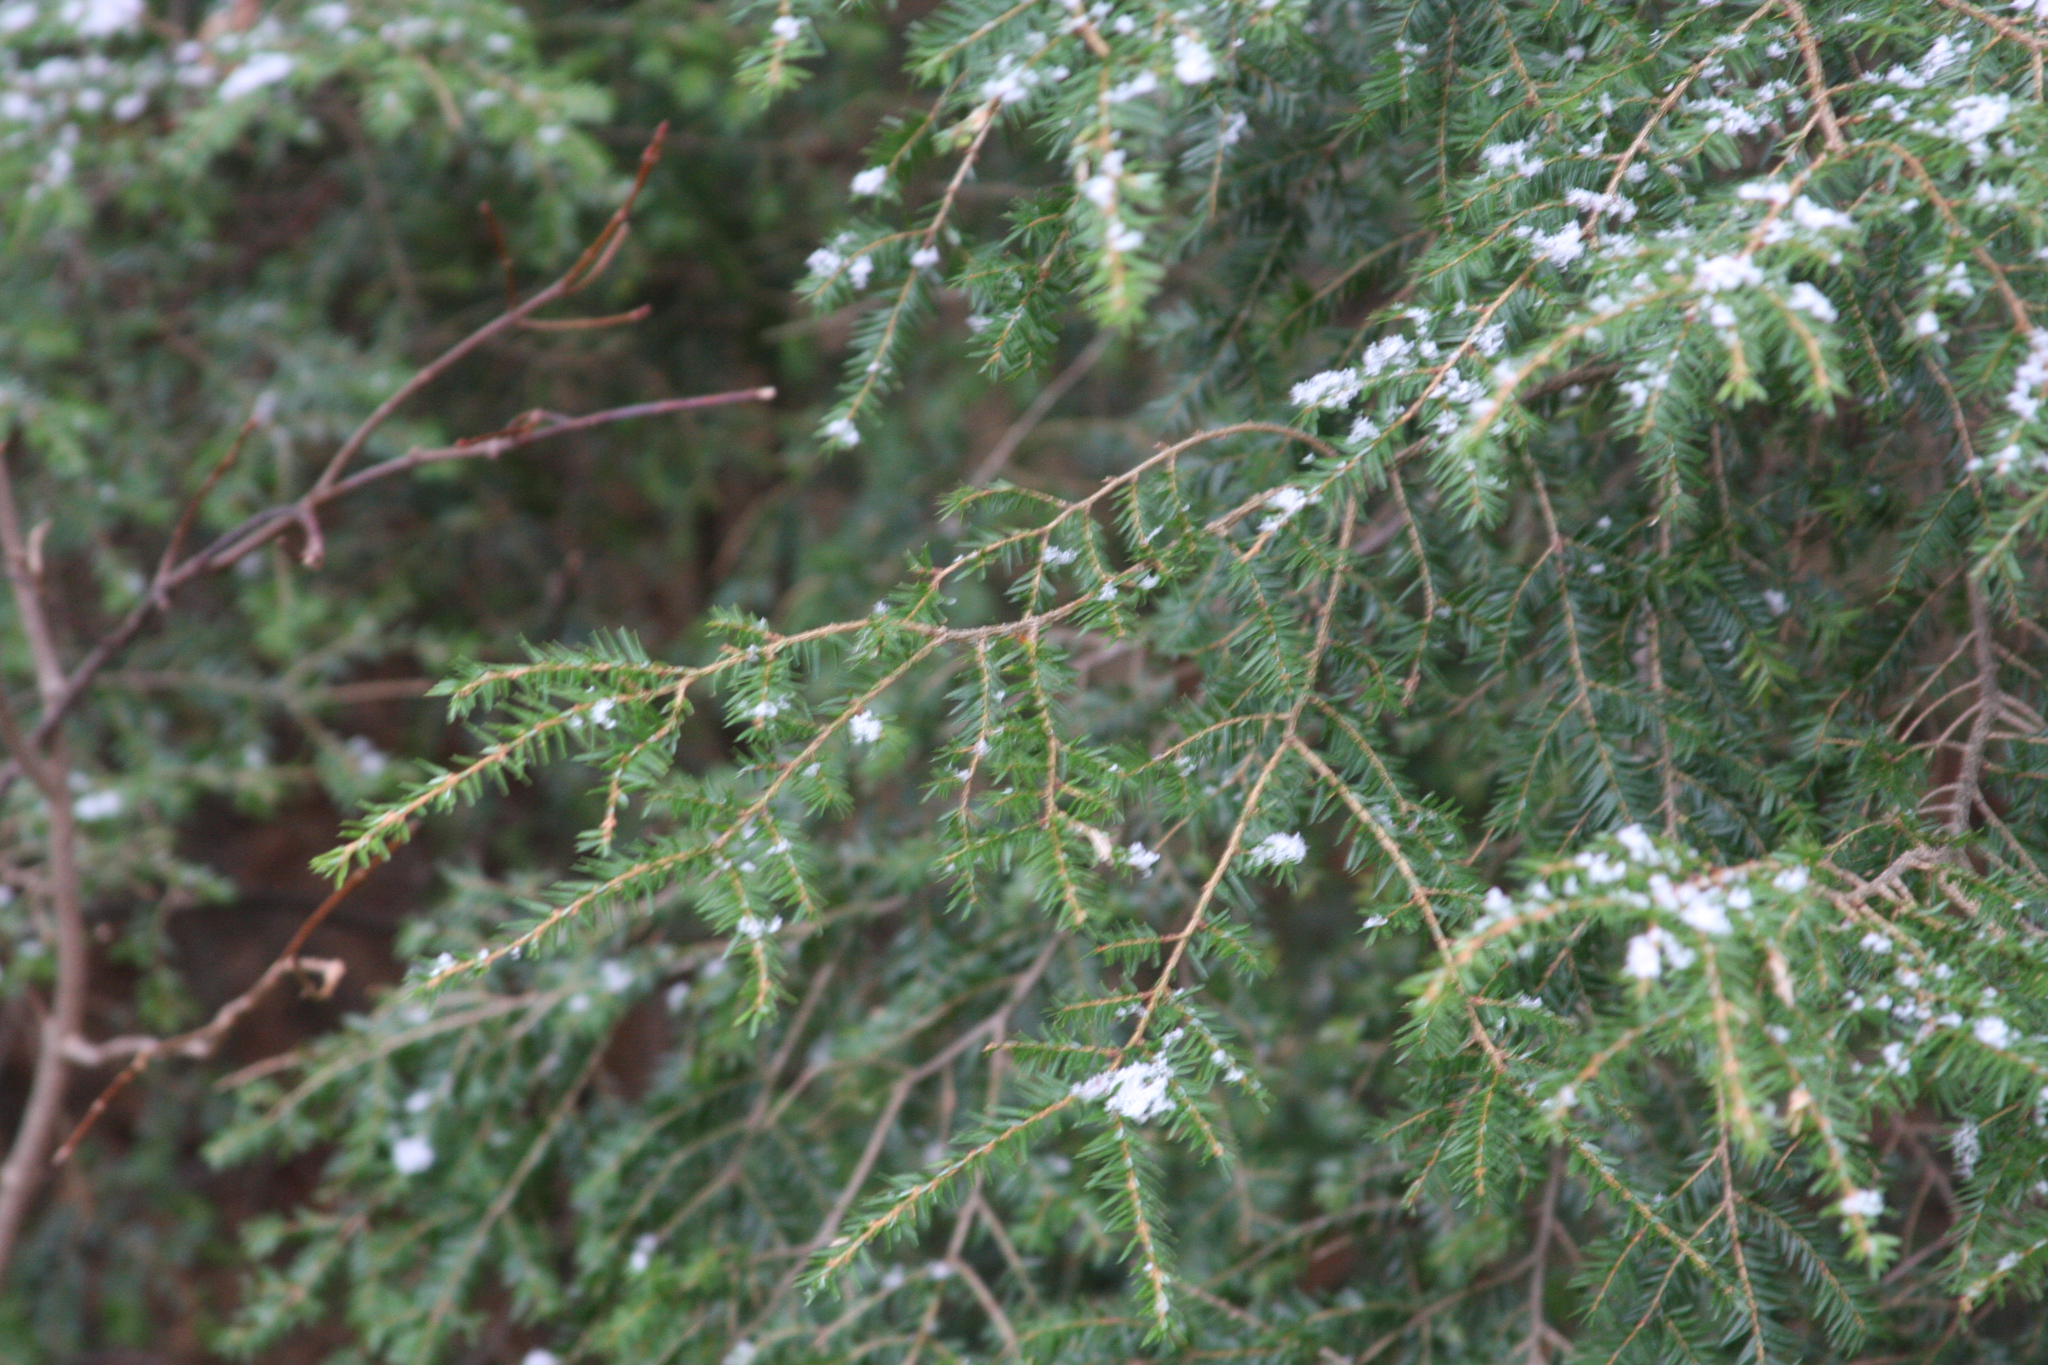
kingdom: Plantae
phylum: Tracheophyta
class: Pinopsida
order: Pinales
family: Pinaceae
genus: Tsuga
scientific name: Tsuga canadensis
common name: Eastern hemlock
